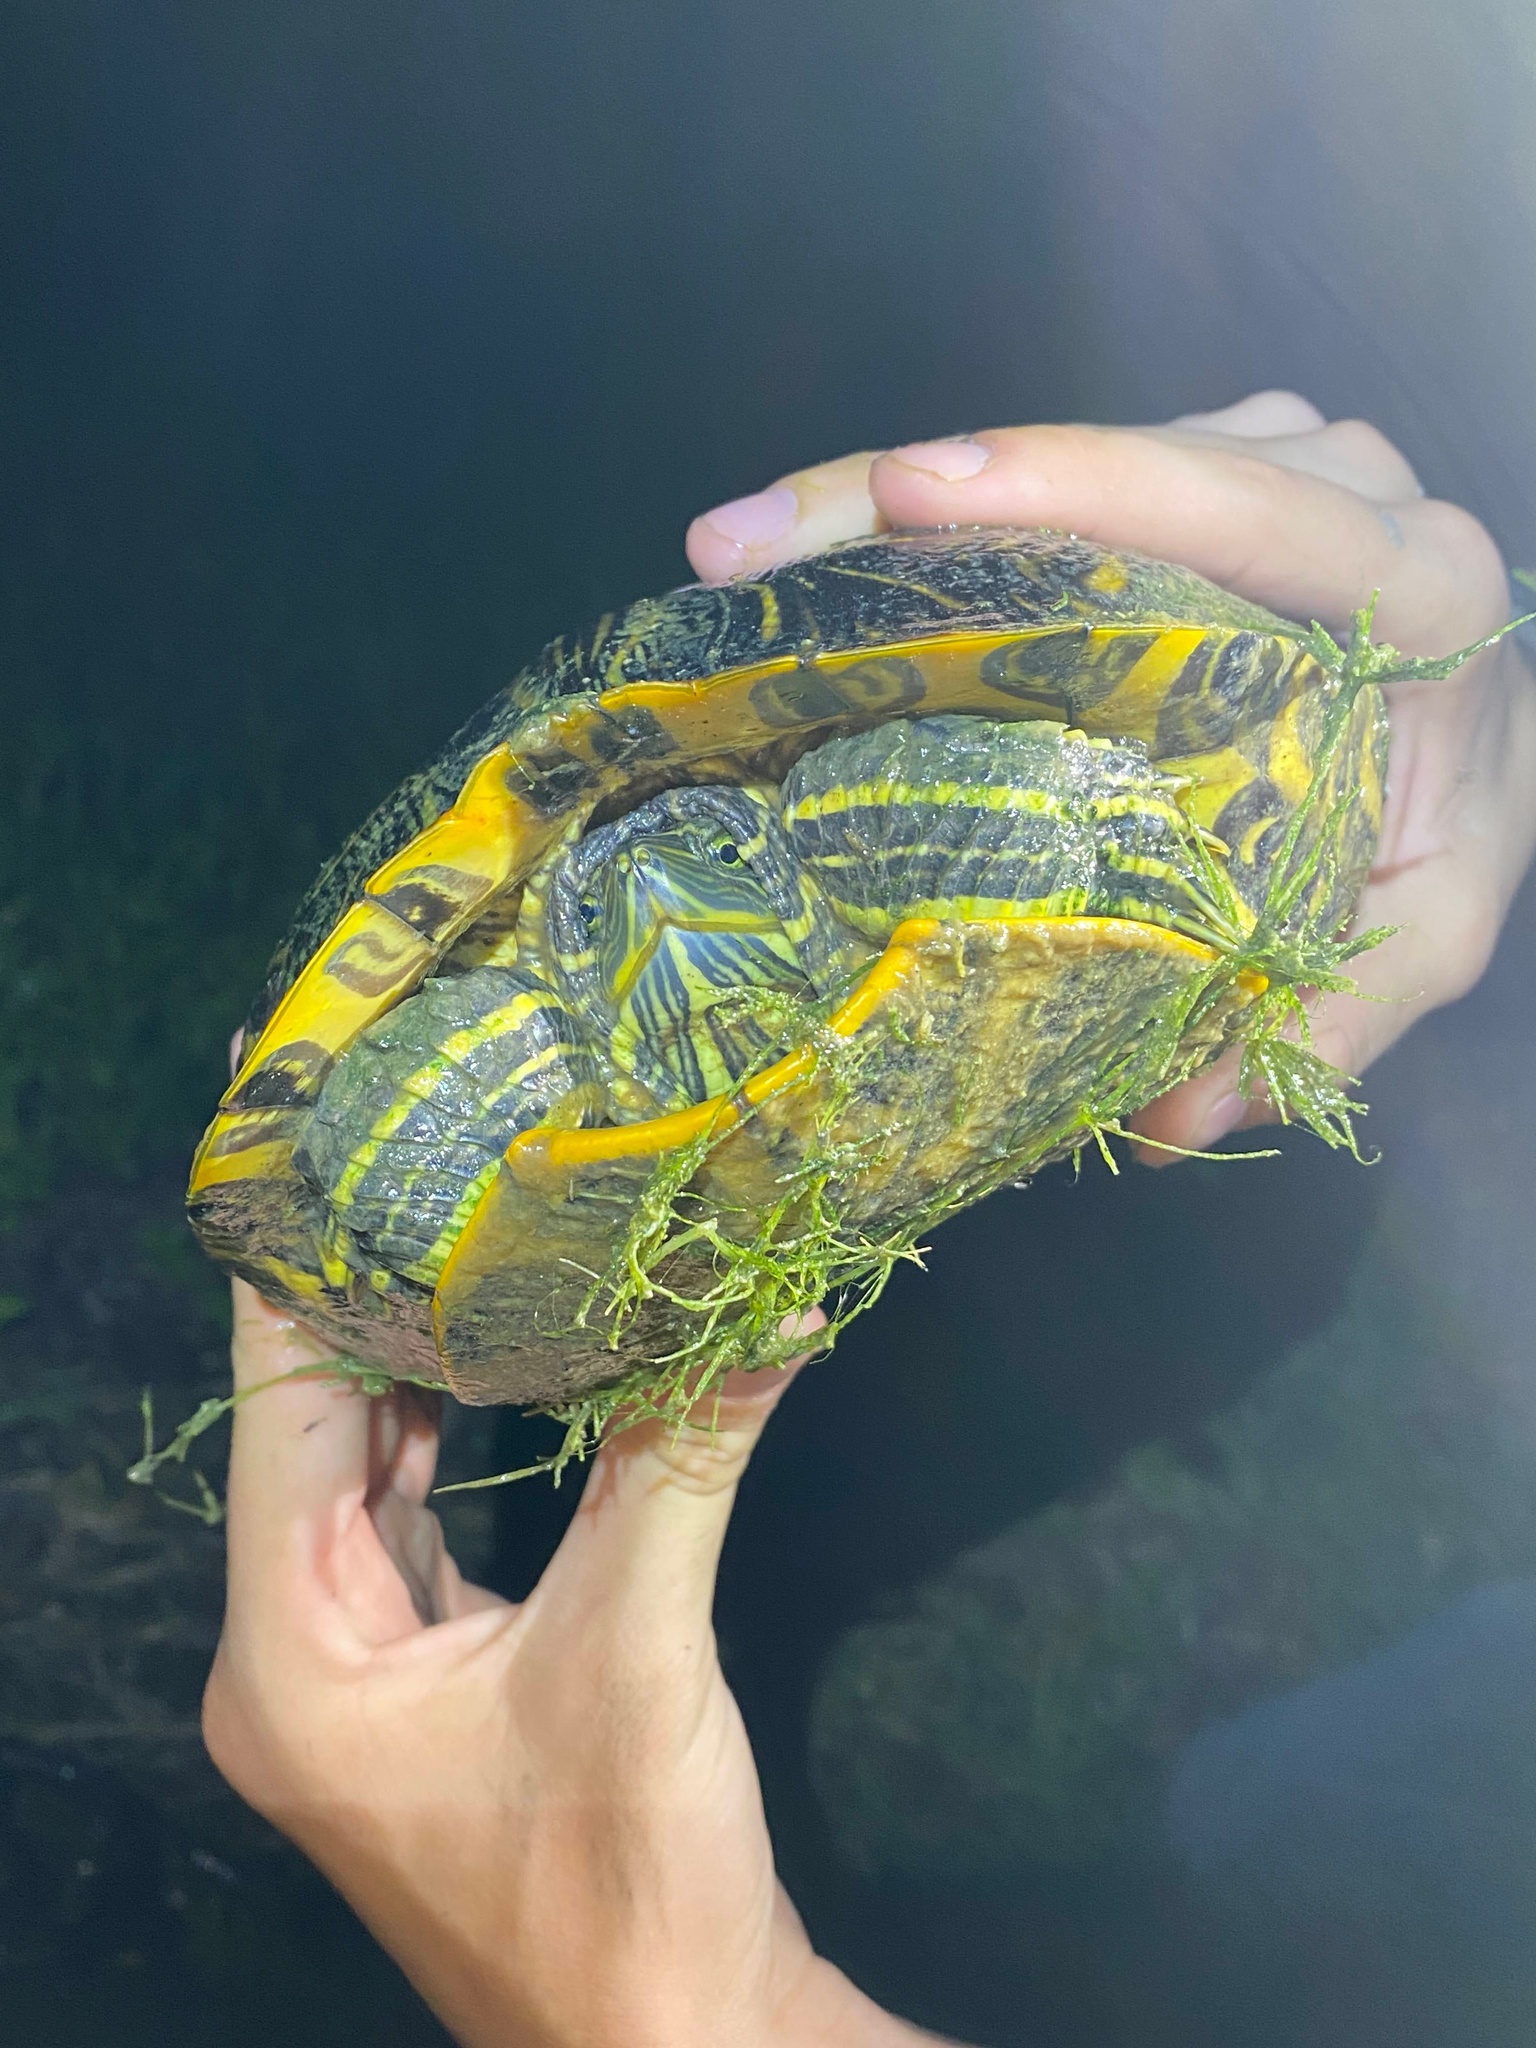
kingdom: Animalia
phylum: Chordata
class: Testudines
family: Emydidae
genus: Trachemys
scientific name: Trachemys scripta
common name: Slider
